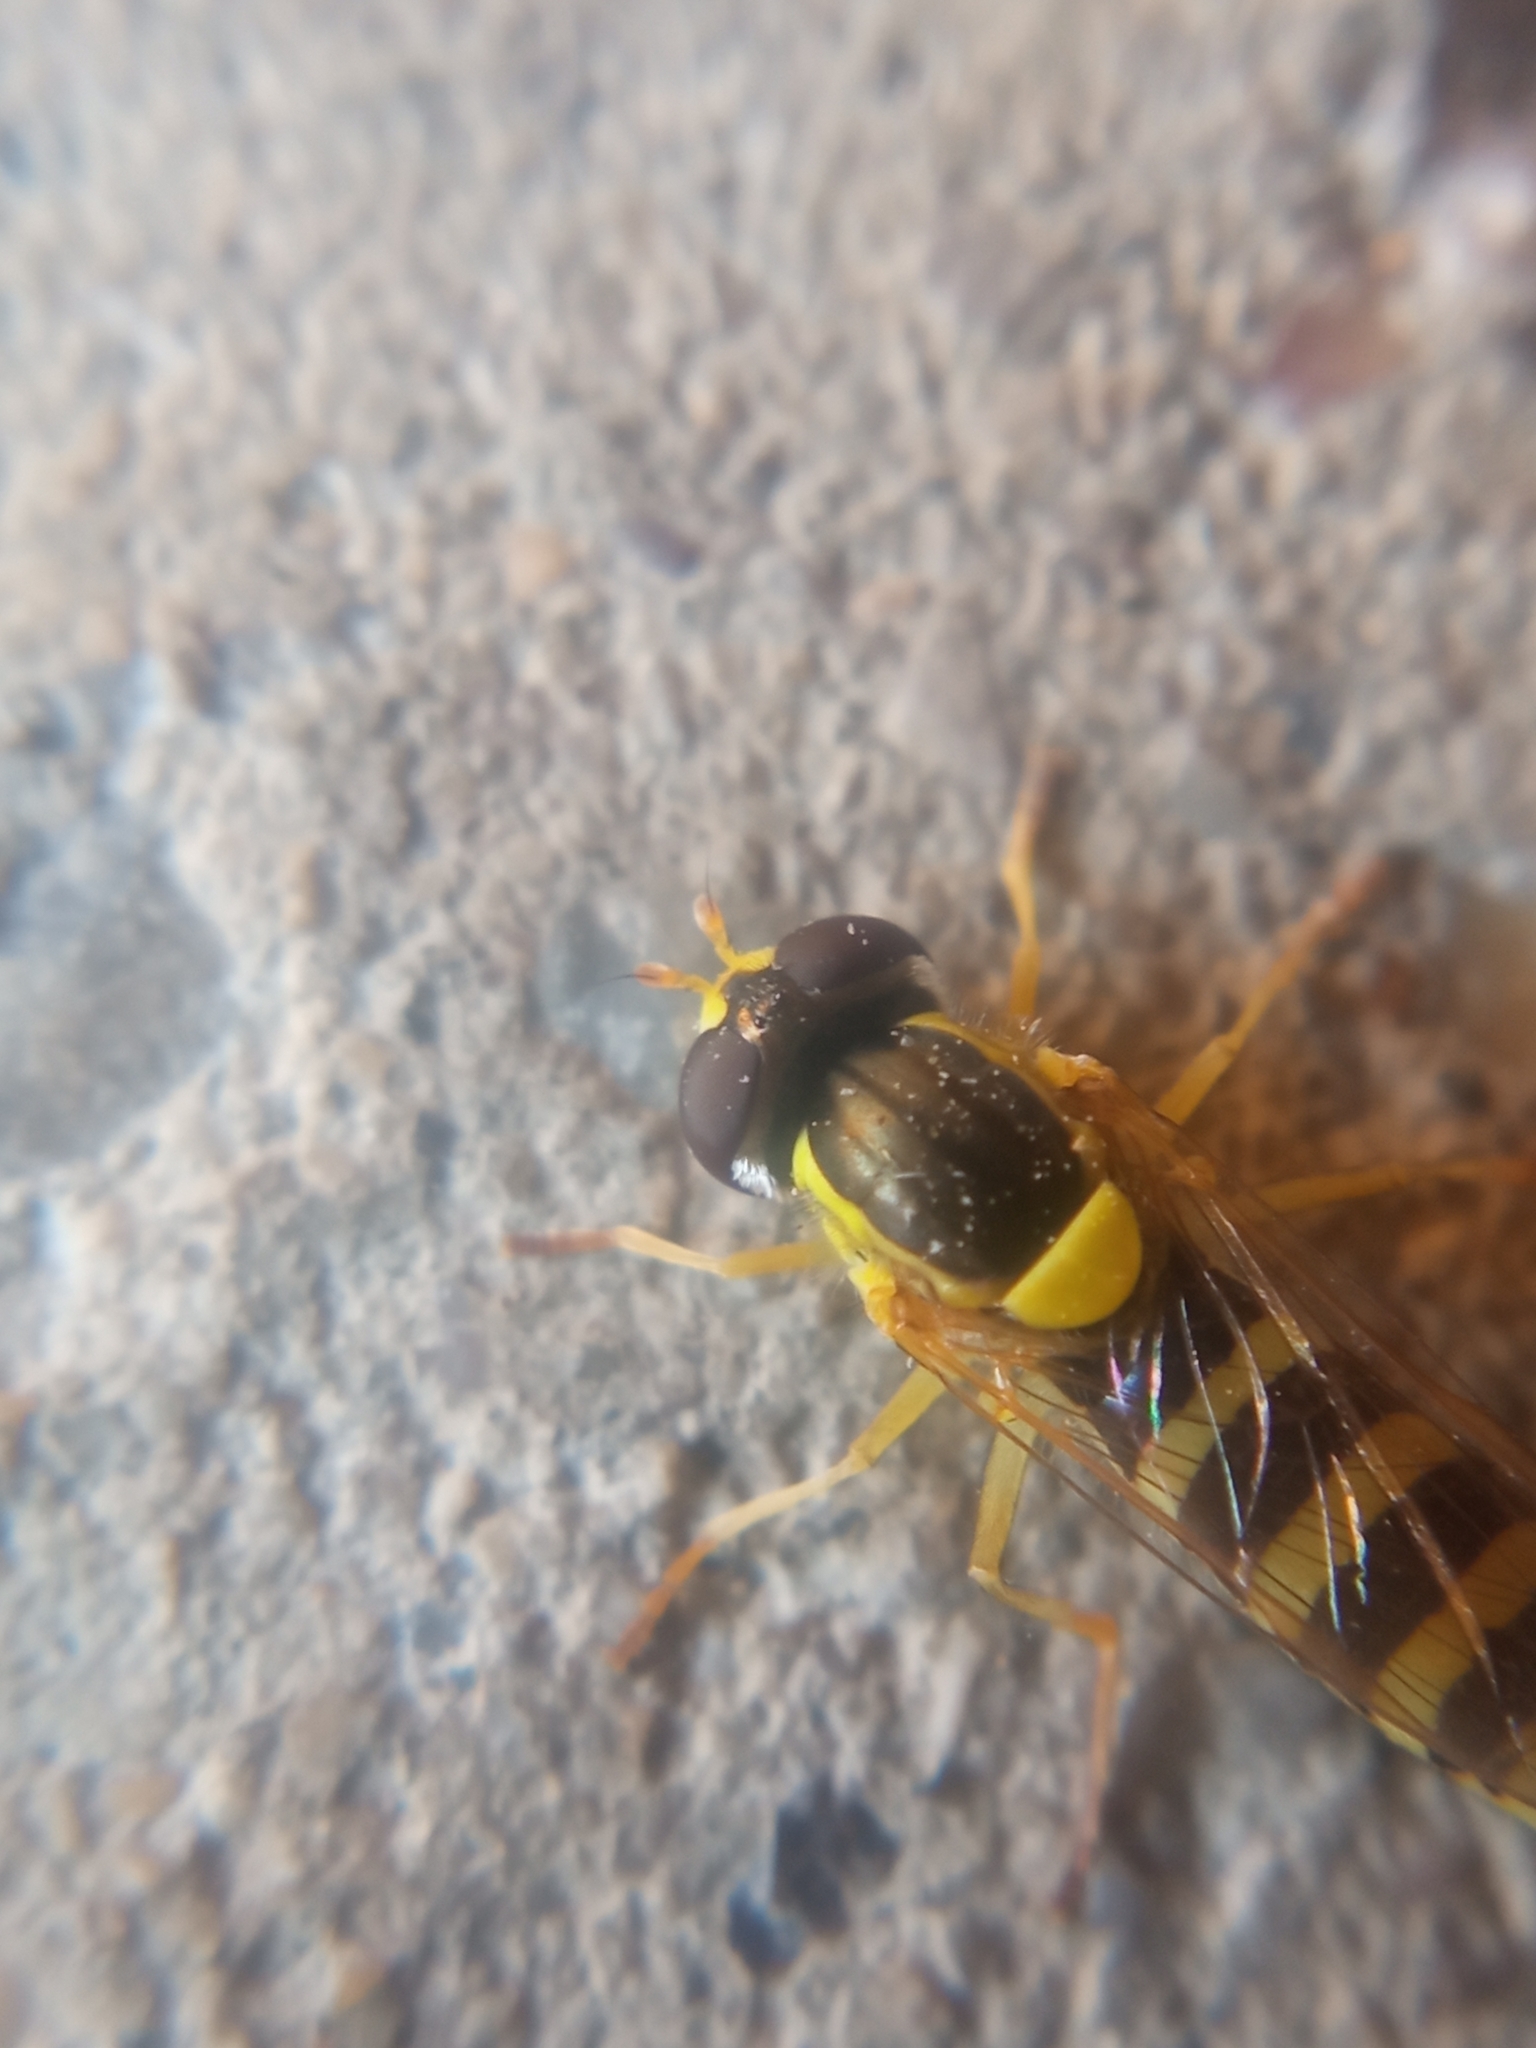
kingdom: Animalia
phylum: Arthropoda
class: Insecta
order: Diptera
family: Syrphidae
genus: Sphaerophoria
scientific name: Sphaerophoria
